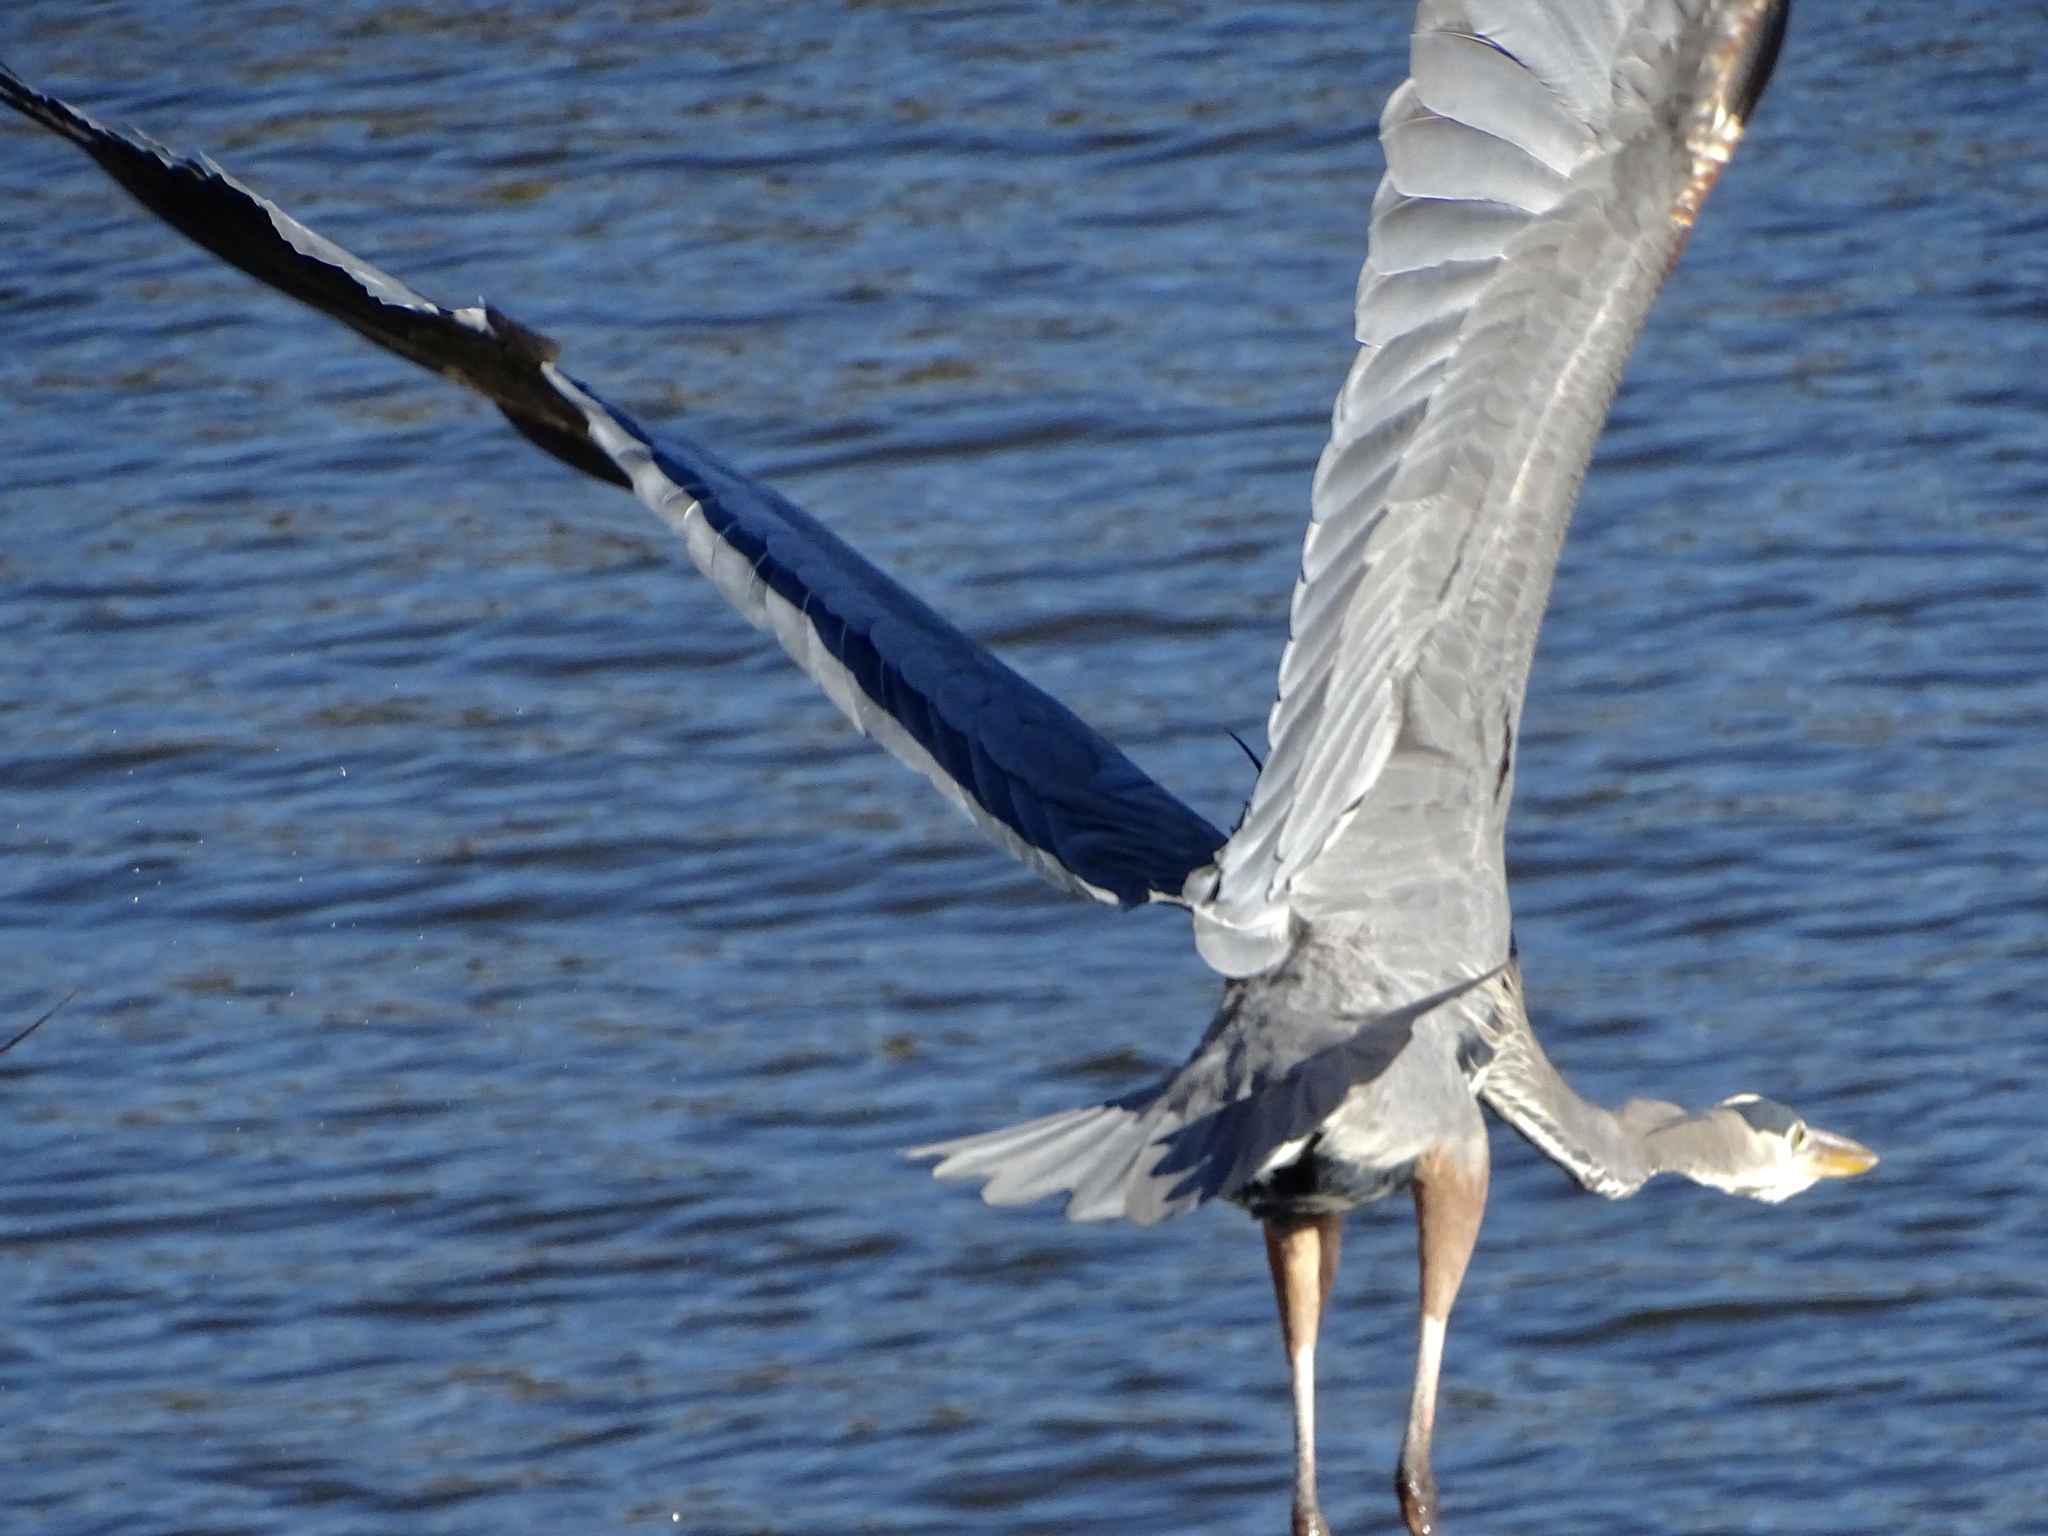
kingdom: Animalia
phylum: Chordata
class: Aves
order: Pelecaniformes
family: Ardeidae
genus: Ardea
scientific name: Ardea herodias
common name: Great blue heron
